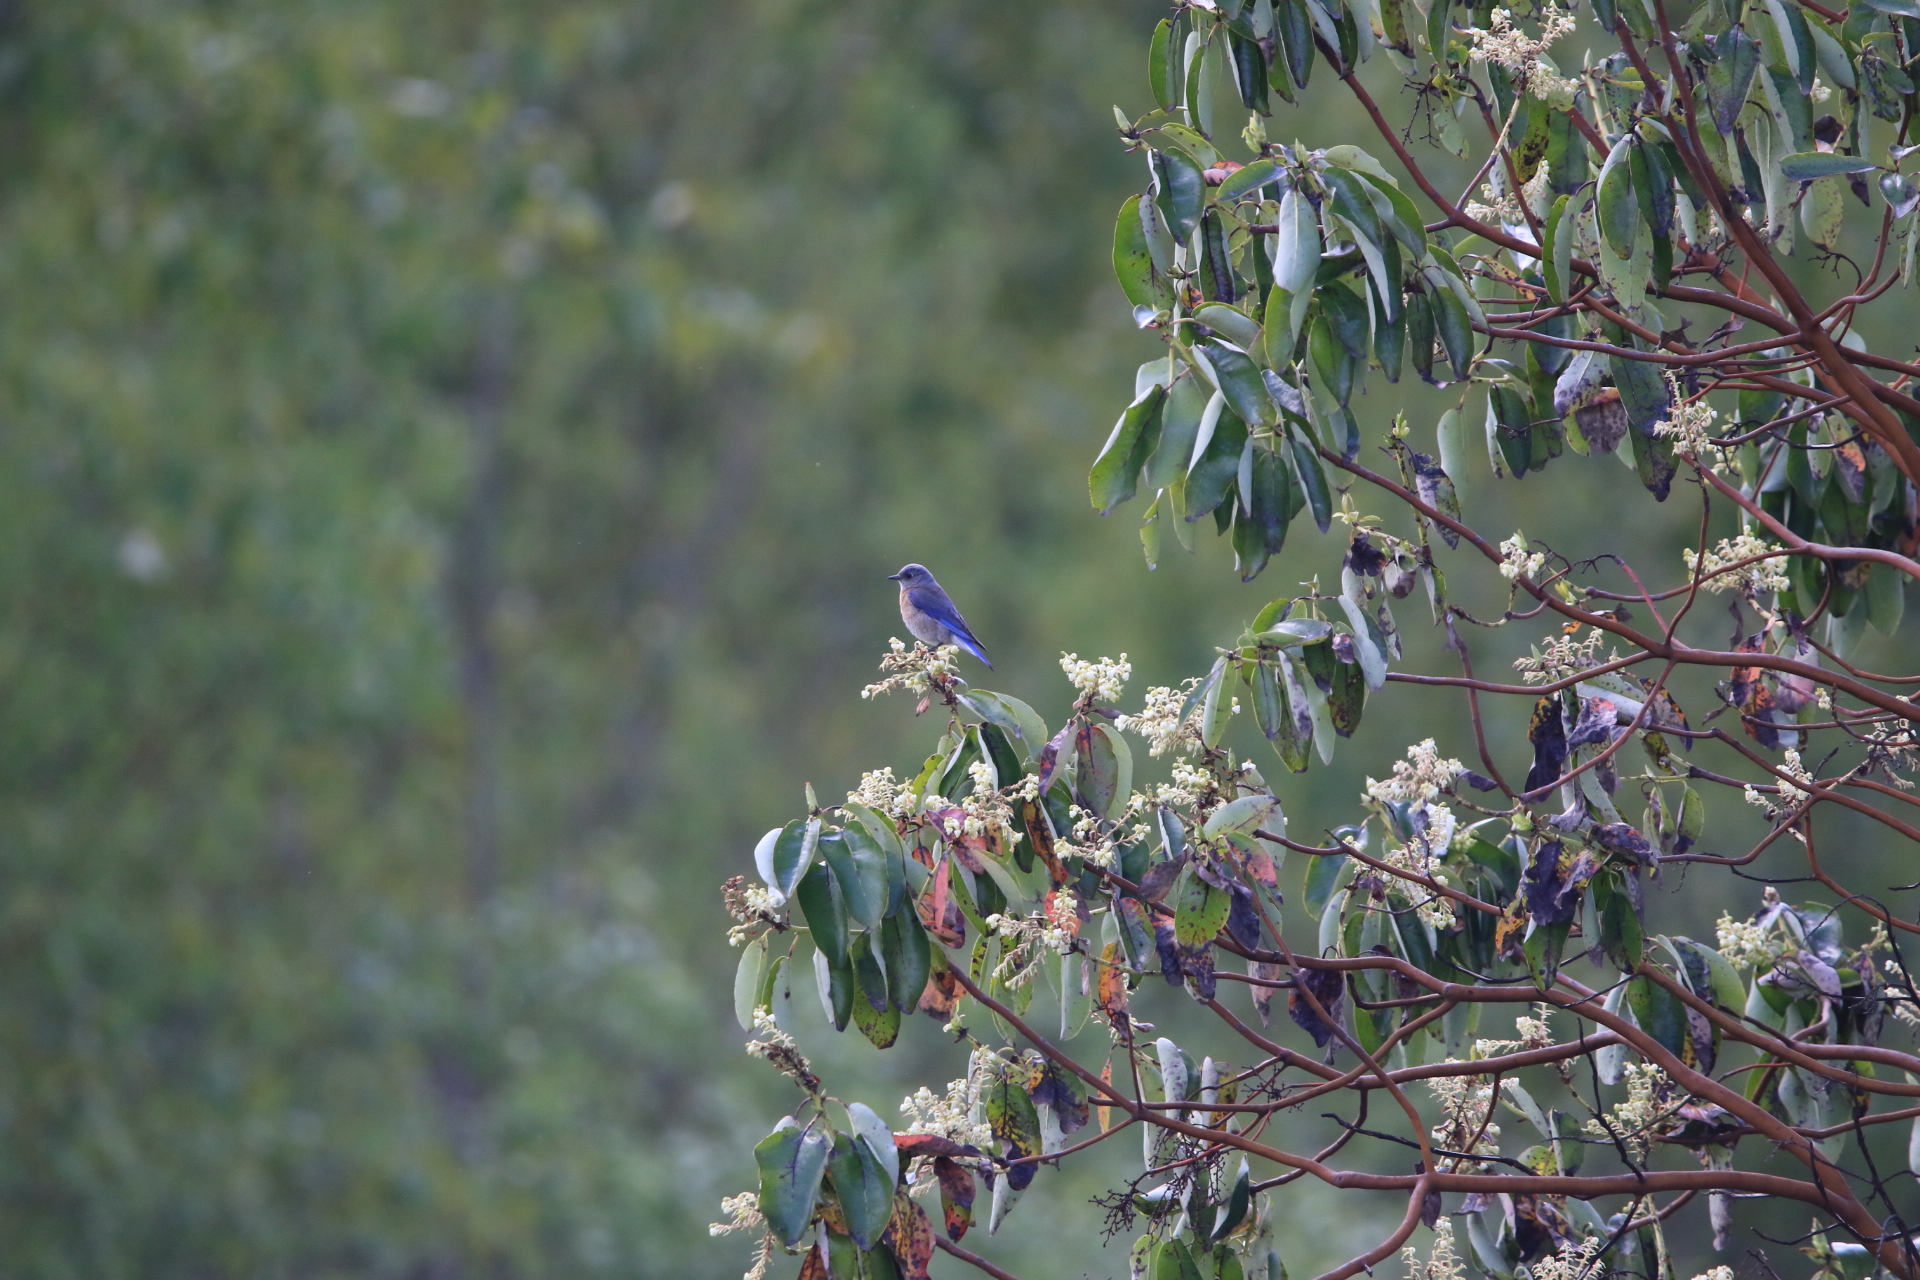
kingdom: Animalia
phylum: Chordata
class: Aves
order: Passeriformes
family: Turdidae
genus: Sialia
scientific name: Sialia mexicana
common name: Western bluebird
